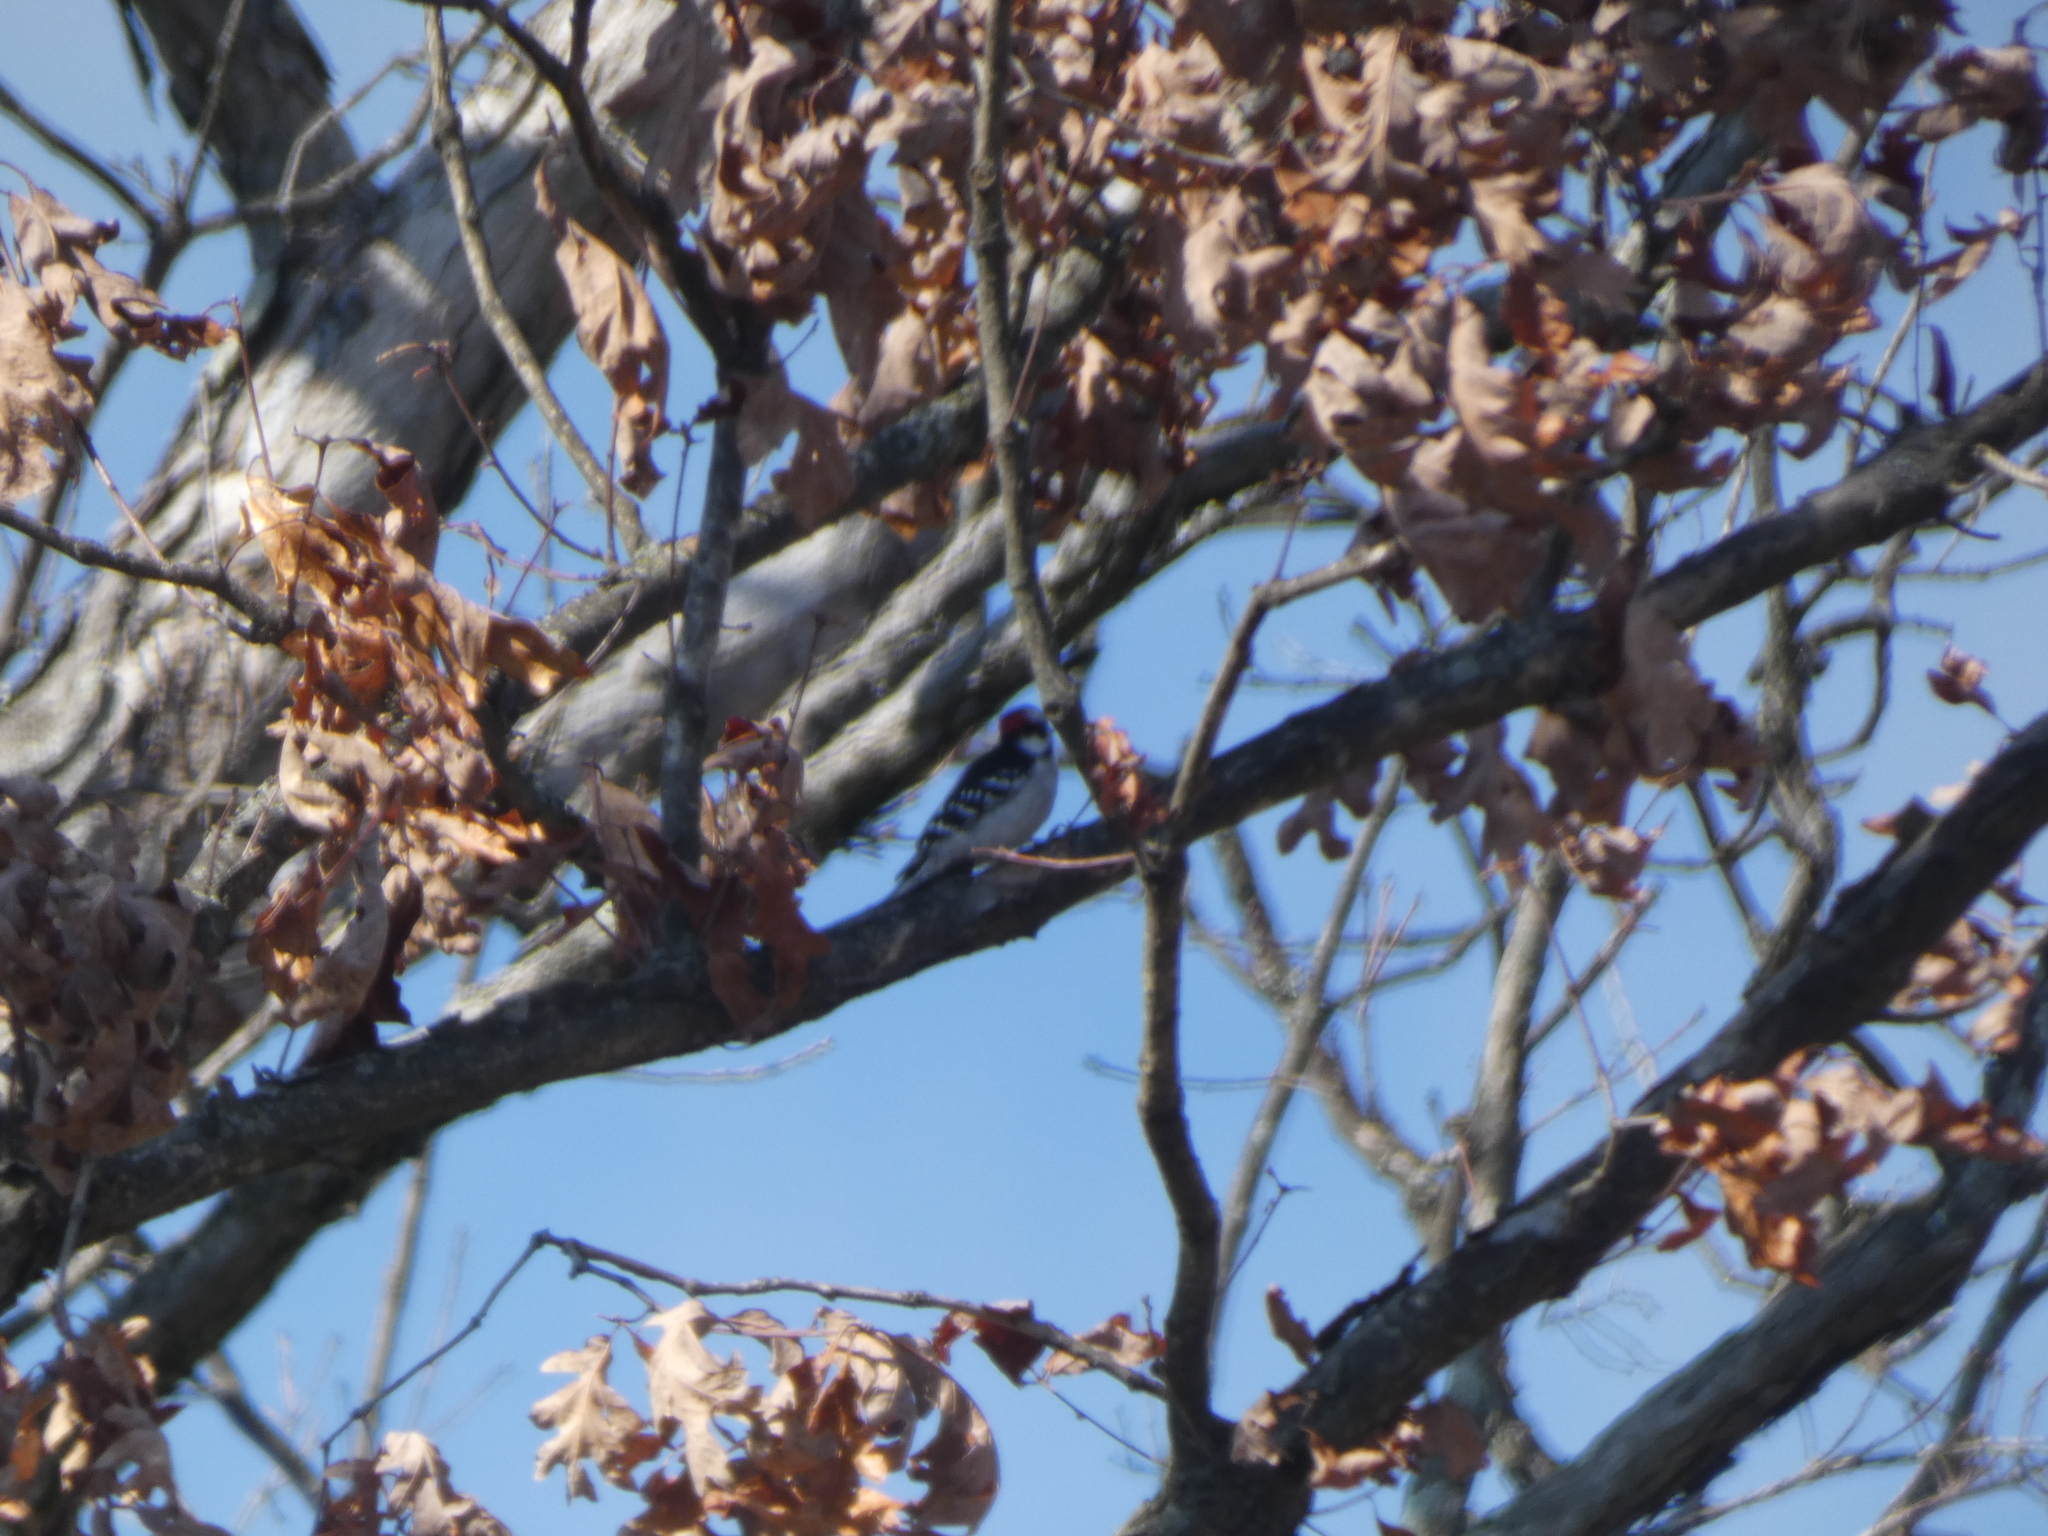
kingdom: Animalia
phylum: Chordata
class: Aves
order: Piciformes
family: Picidae
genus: Dryobates
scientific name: Dryobates pubescens
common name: Downy woodpecker
